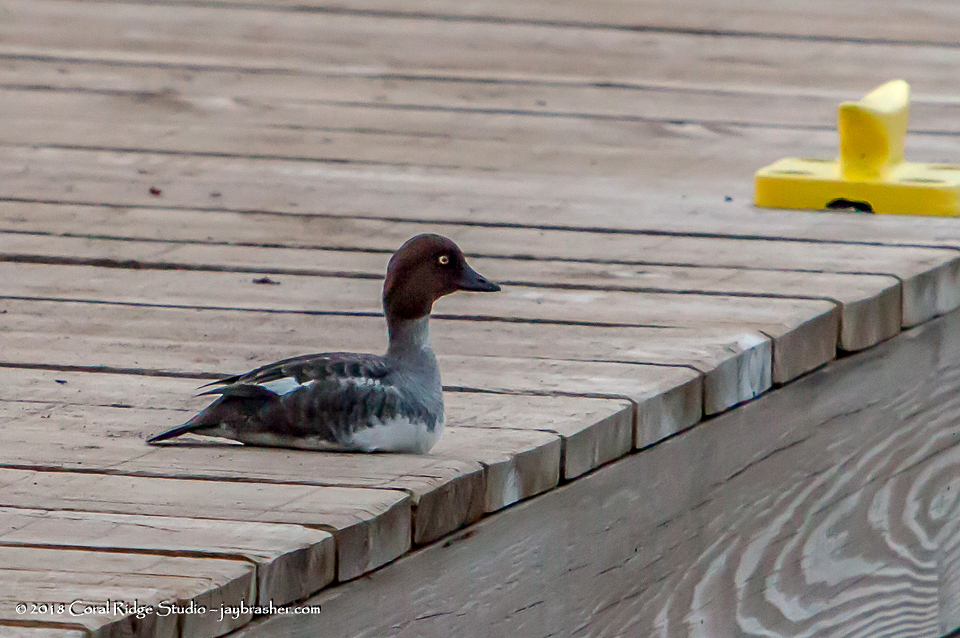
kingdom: Animalia
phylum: Chordata
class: Aves
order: Anseriformes
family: Anatidae
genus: Bucephala
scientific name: Bucephala clangula
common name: Common goldeneye
